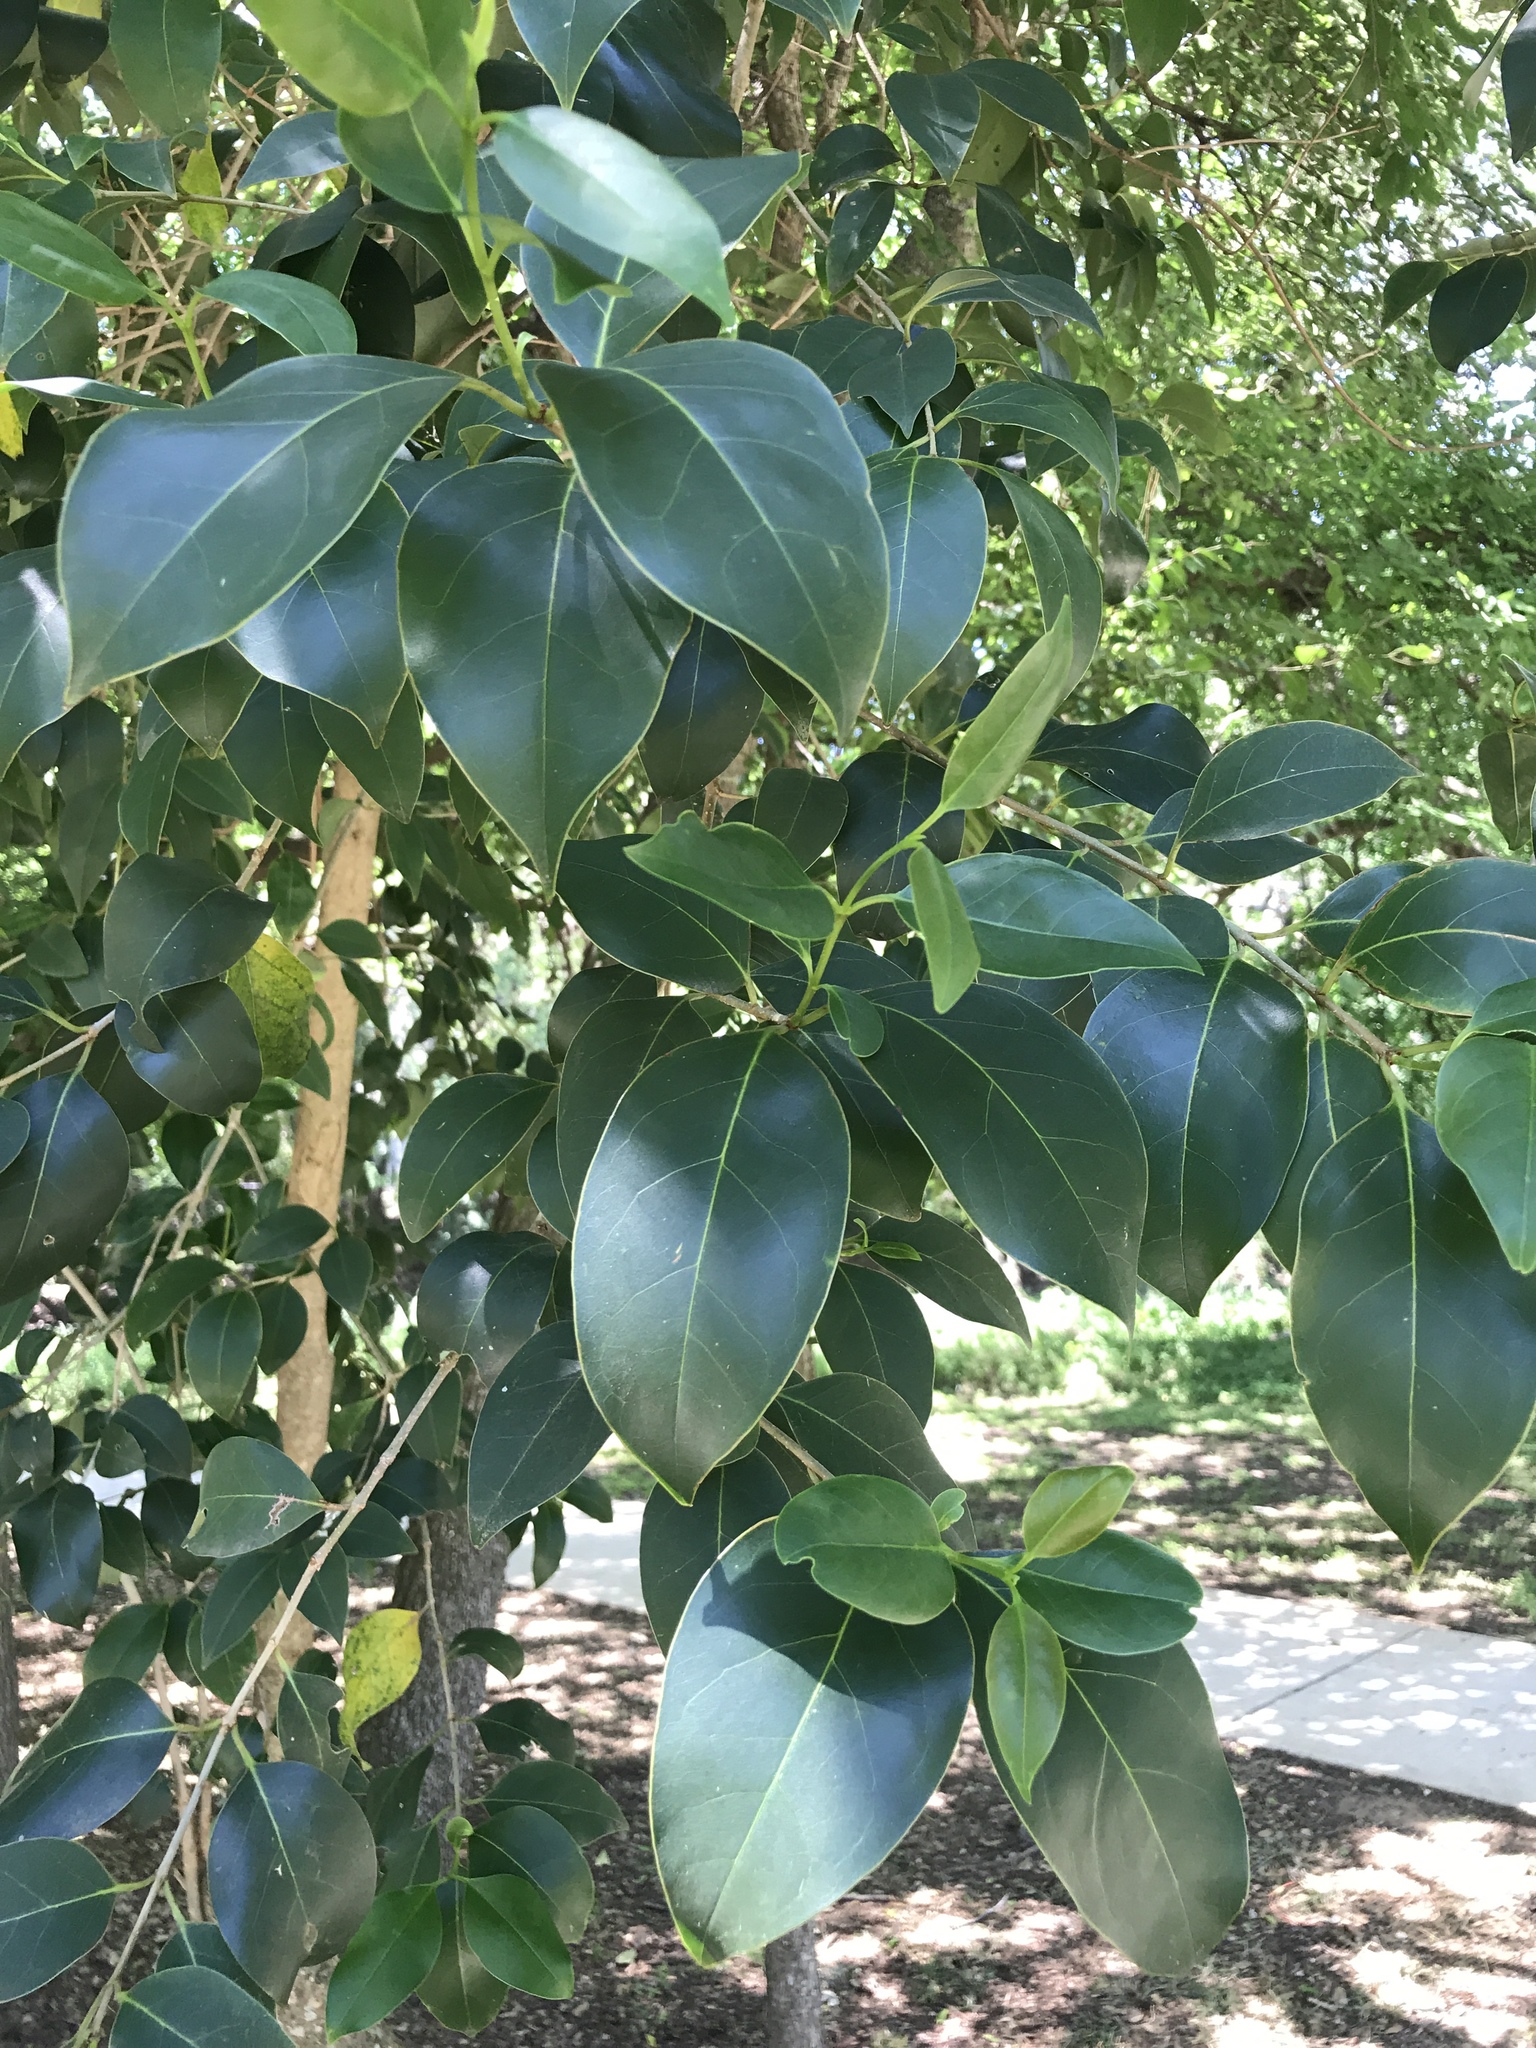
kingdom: Plantae
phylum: Tracheophyta
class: Magnoliopsida
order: Lamiales
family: Oleaceae
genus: Ligustrum
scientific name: Ligustrum lucidum
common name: Glossy privet
